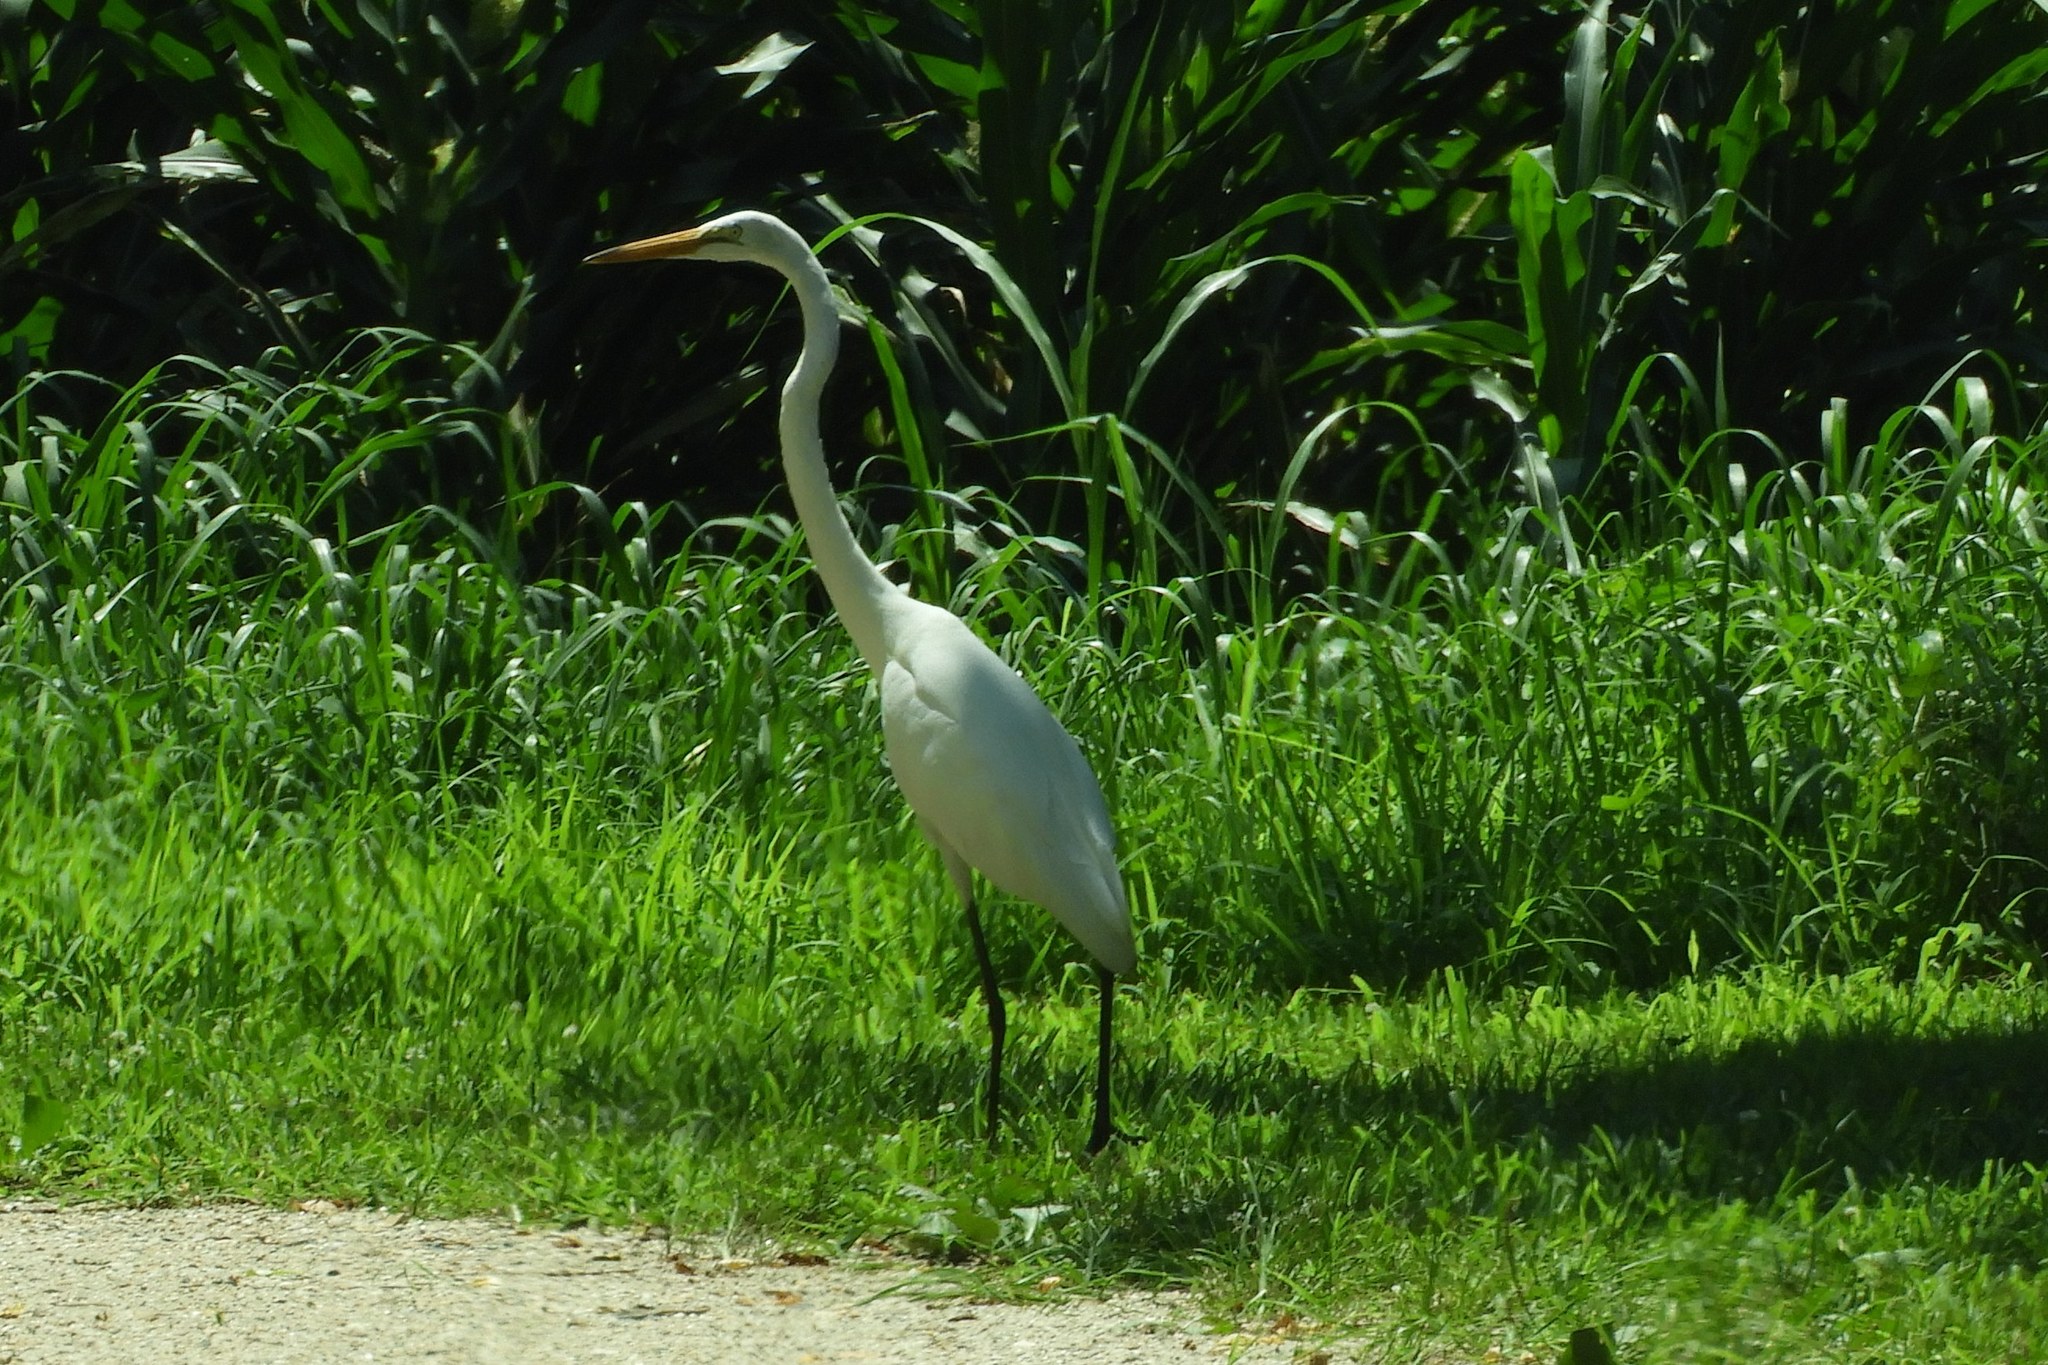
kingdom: Animalia
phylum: Chordata
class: Aves
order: Pelecaniformes
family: Ardeidae
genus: Ardea
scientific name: Ardea alba
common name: Great egret
